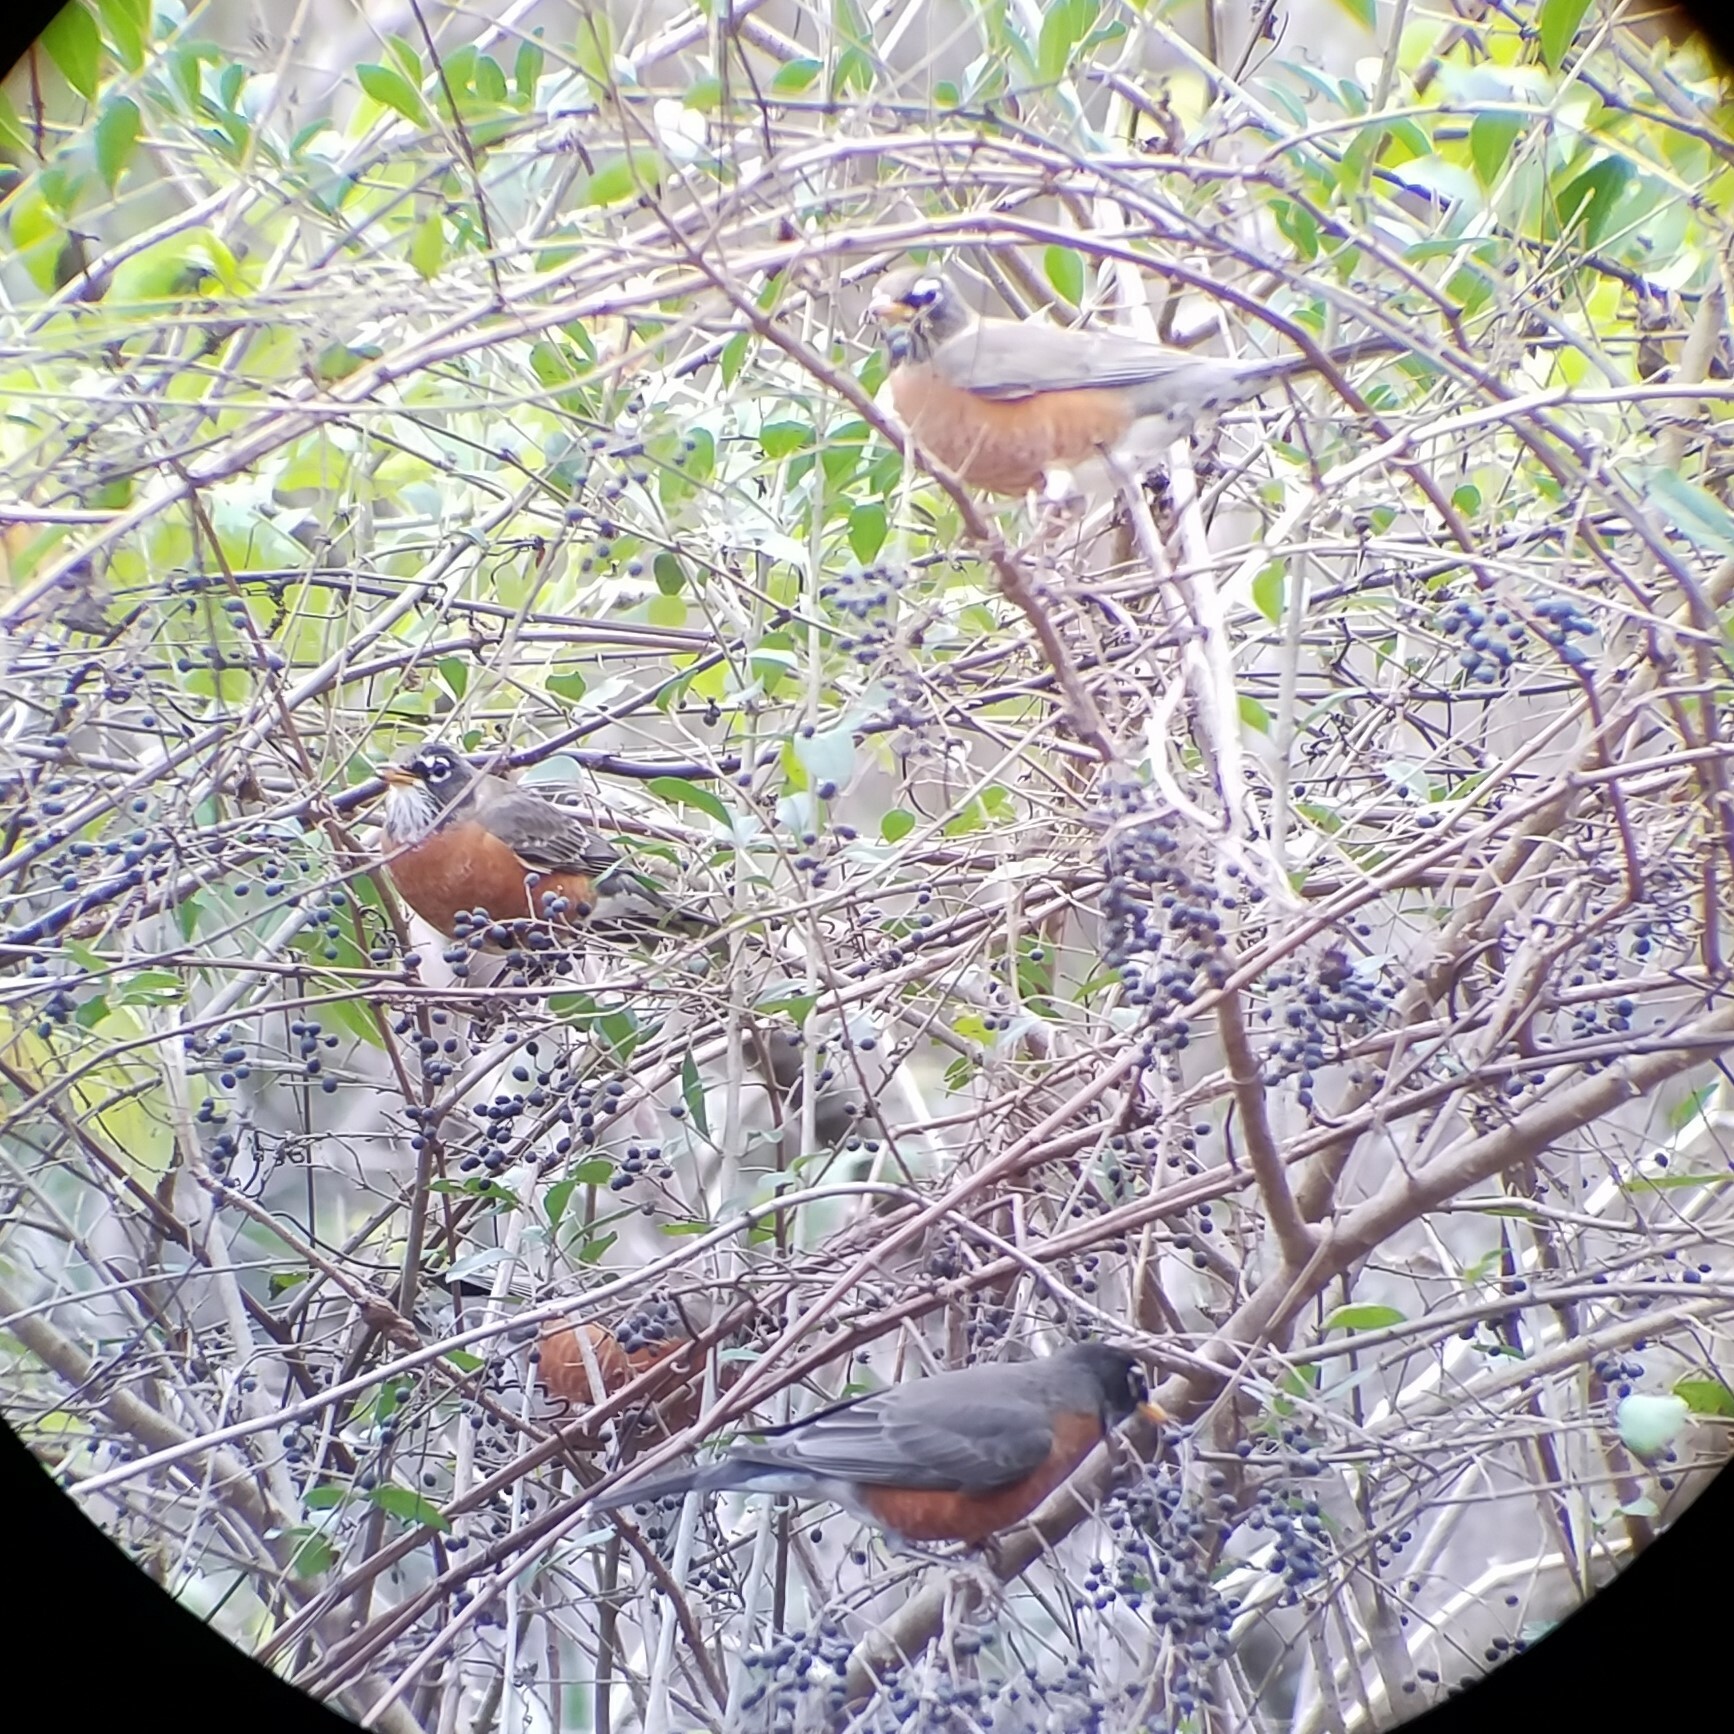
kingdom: Animalia
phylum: Chordata
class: Aves
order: Passeriformes
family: Turdidae
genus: Turdus
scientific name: Turdus migratorius
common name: American robin
